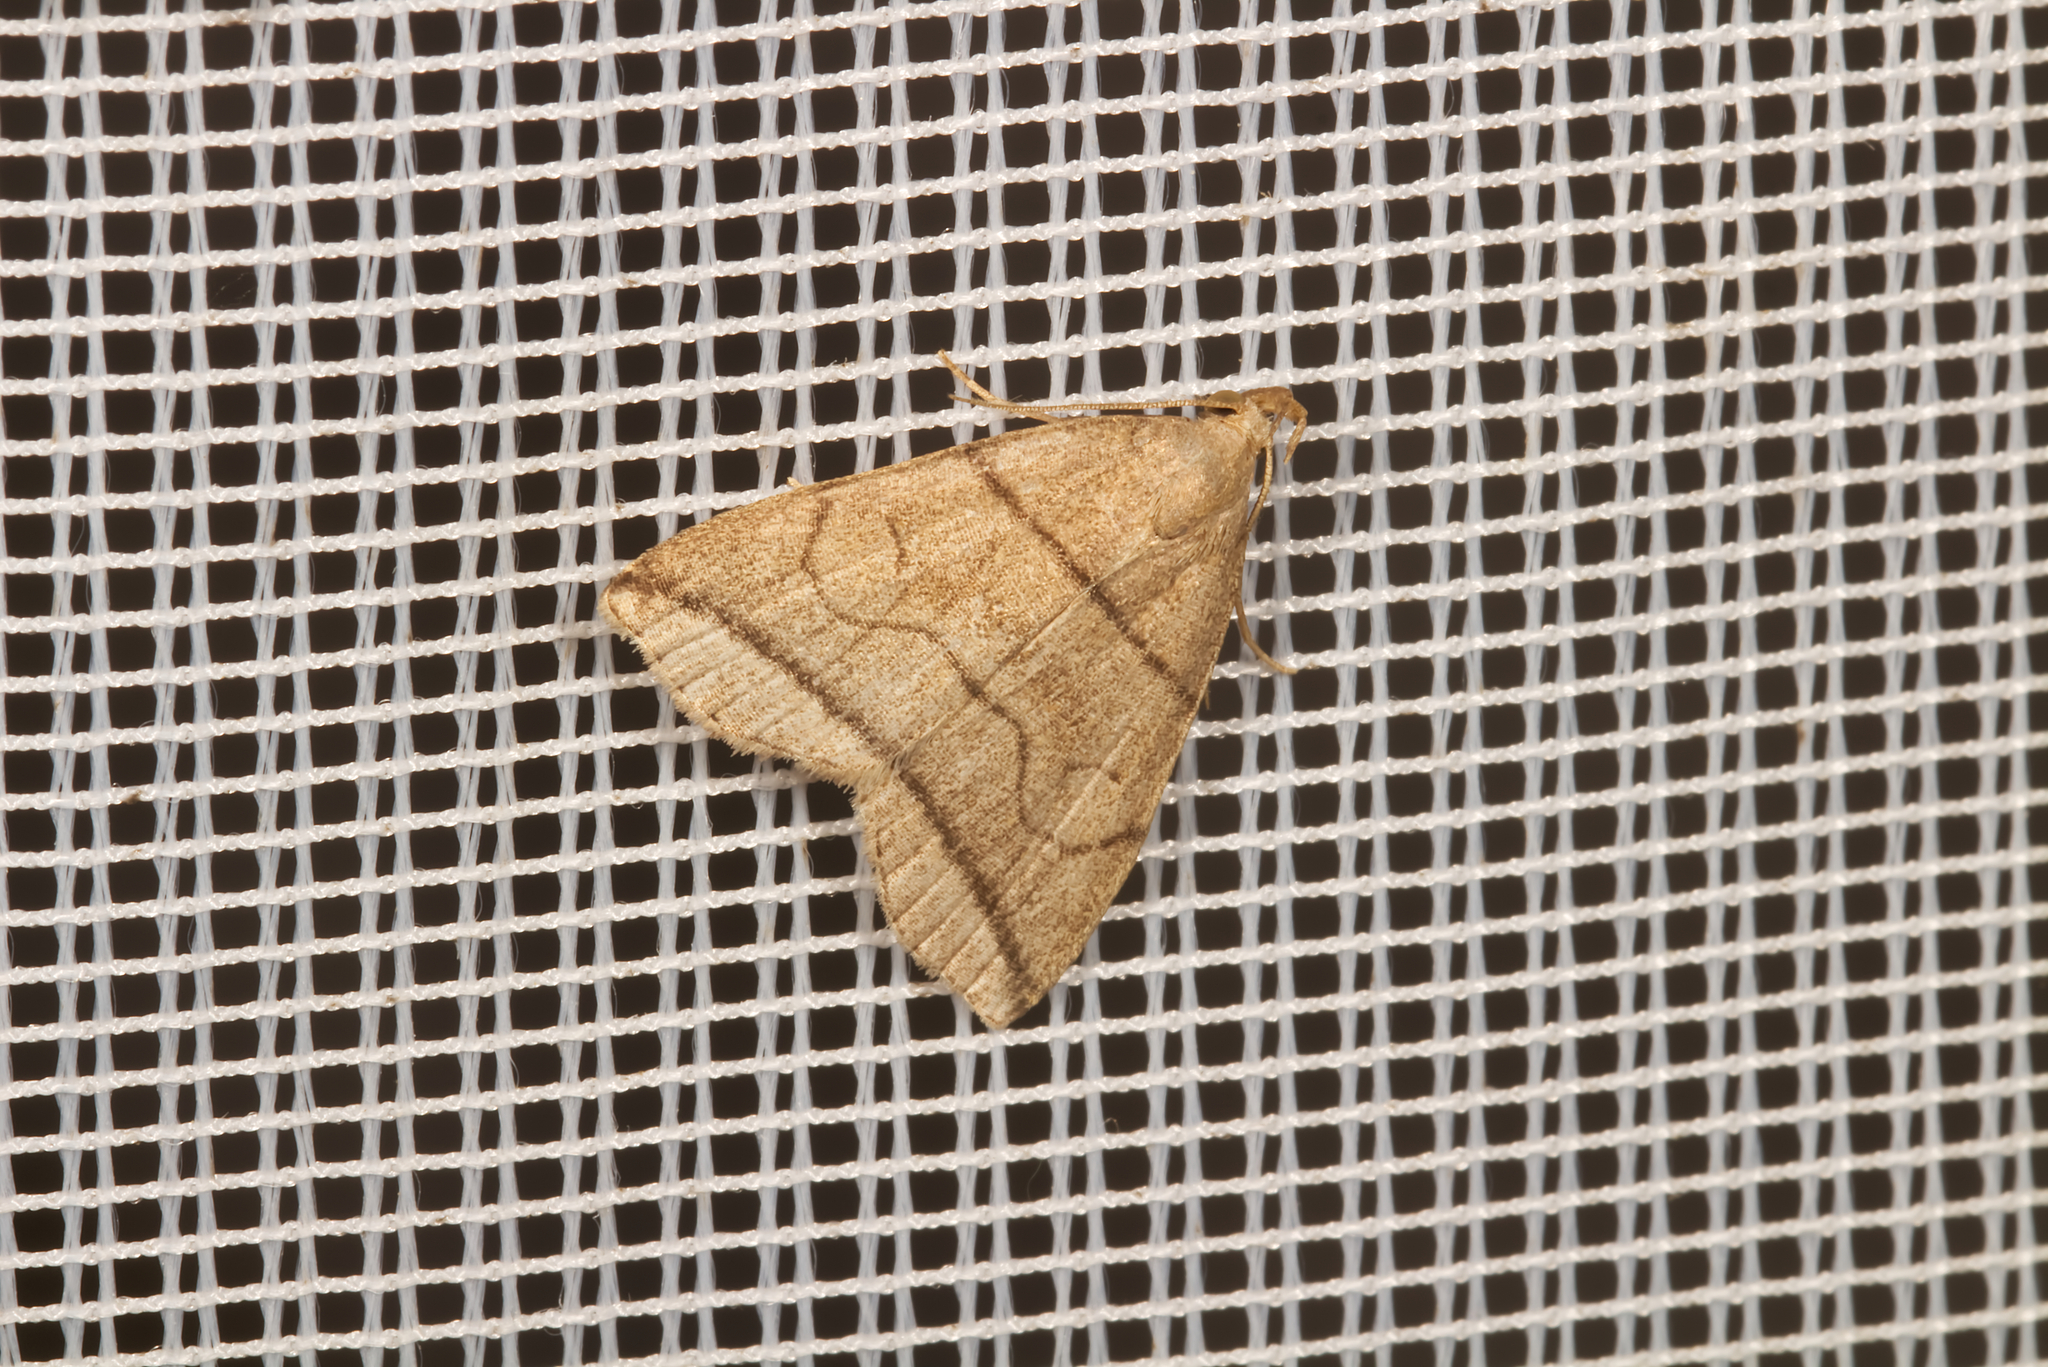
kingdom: Animalia
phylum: Arthropoda
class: Insecta
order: Lepidoptera
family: Erebidae
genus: Herminia
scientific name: Herminia grisealis
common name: Small fan-foot
